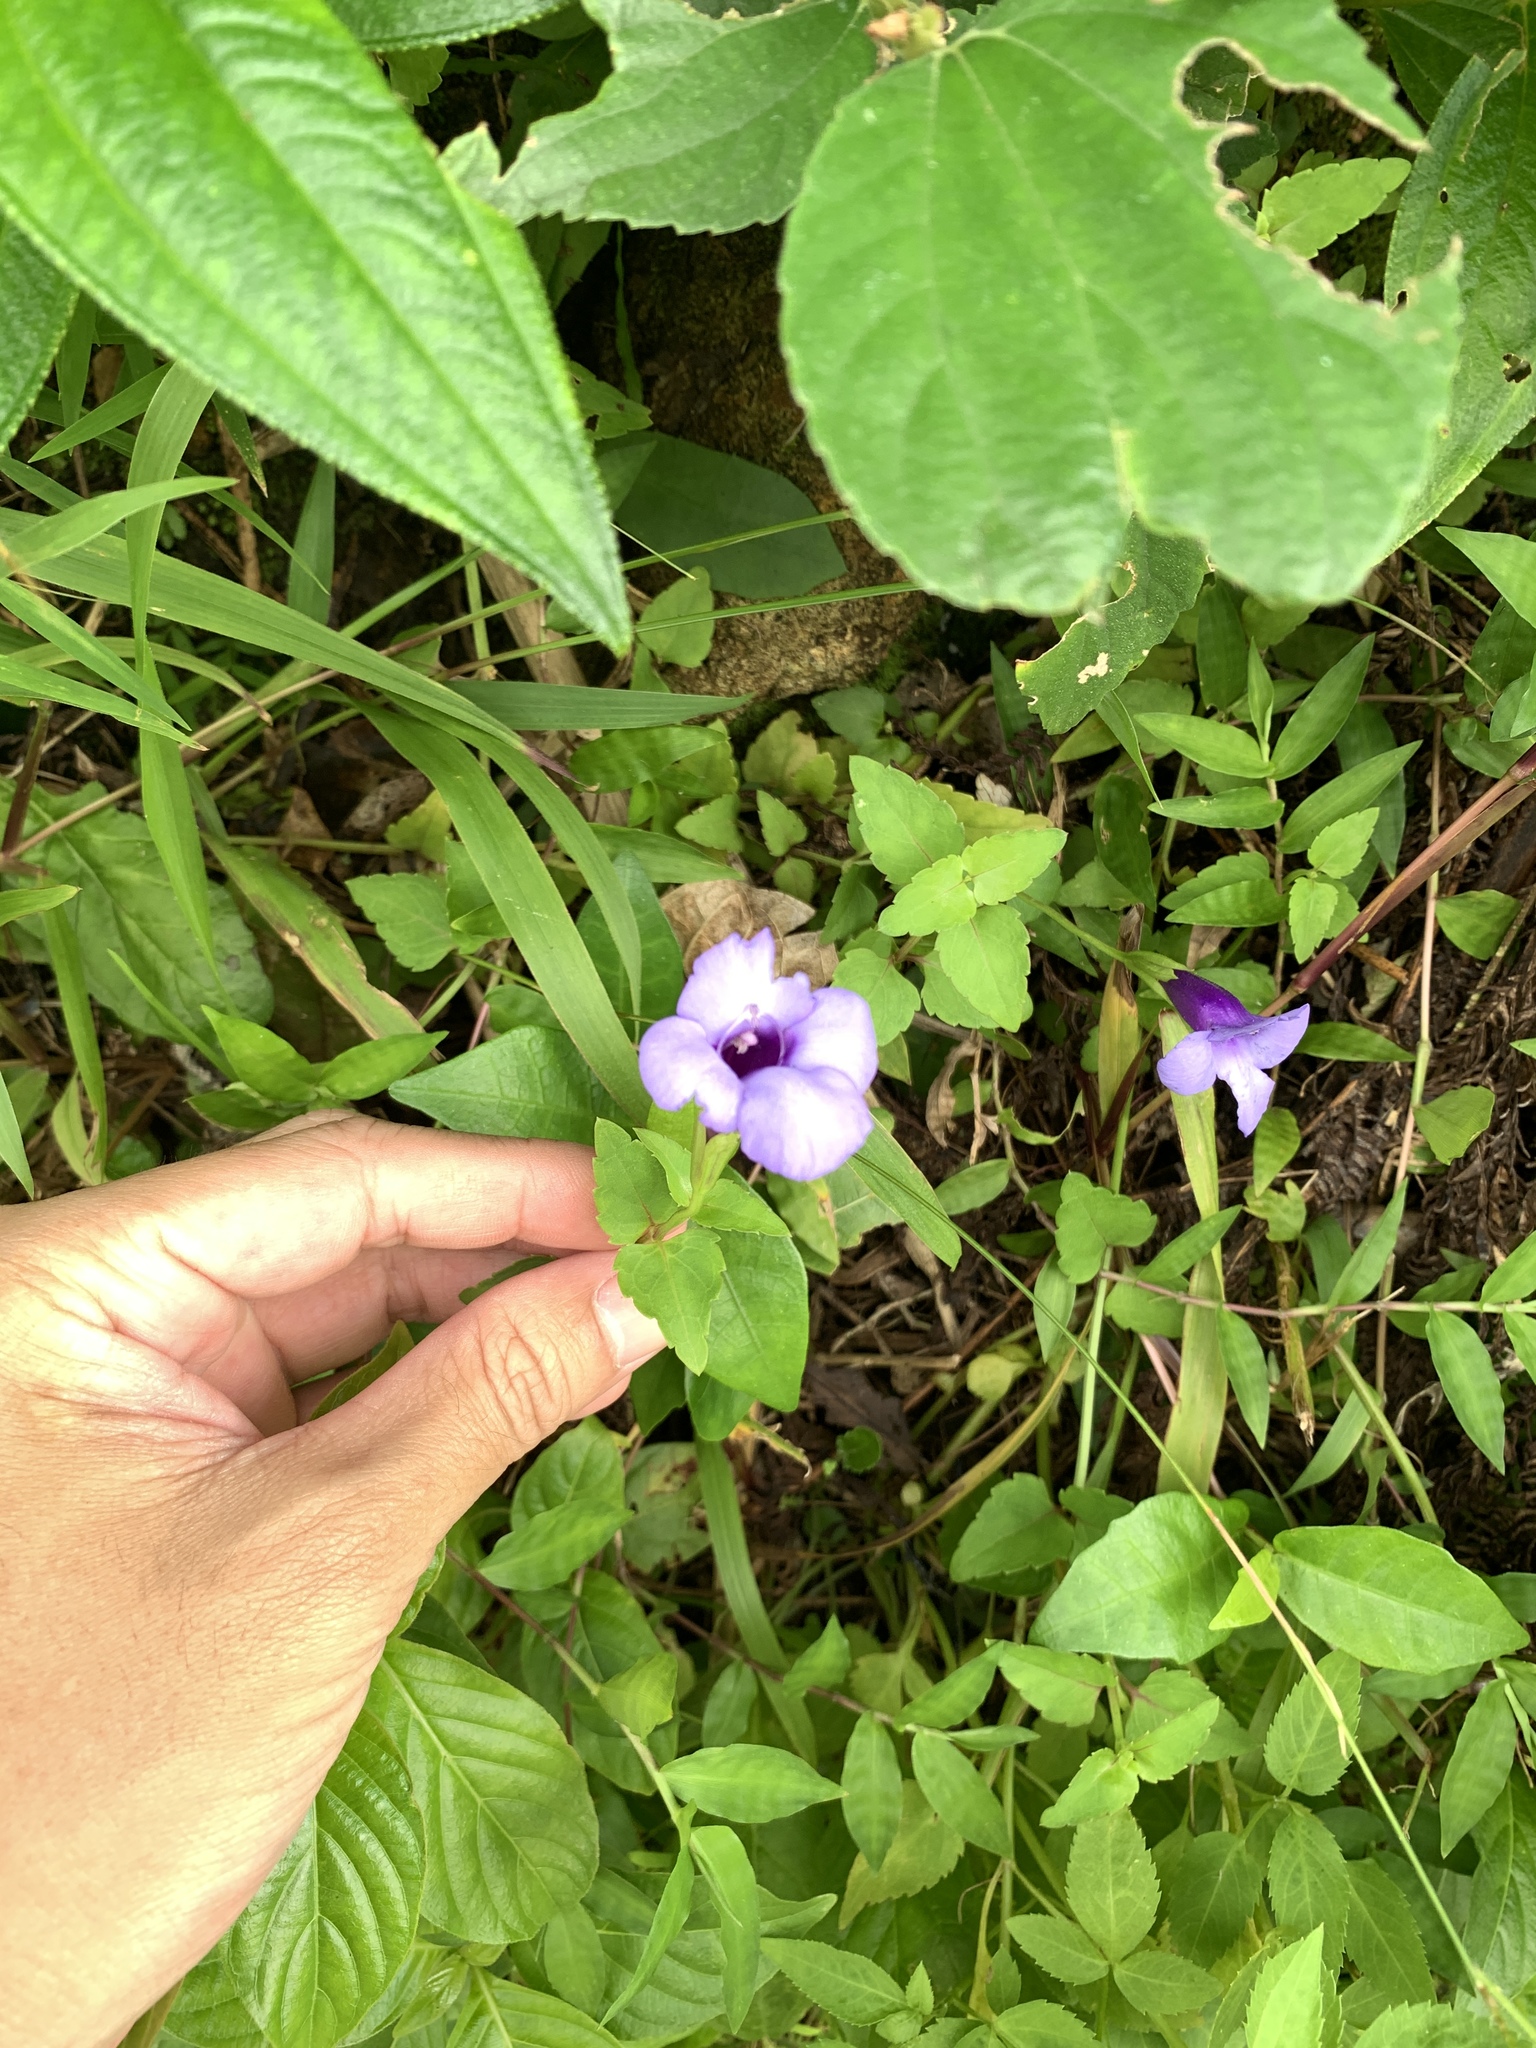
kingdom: Plantae
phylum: Tracheophyta
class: Magnoliopsida
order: Lamiales
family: Linderniaceae
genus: Torenia
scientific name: Torenia concolor
